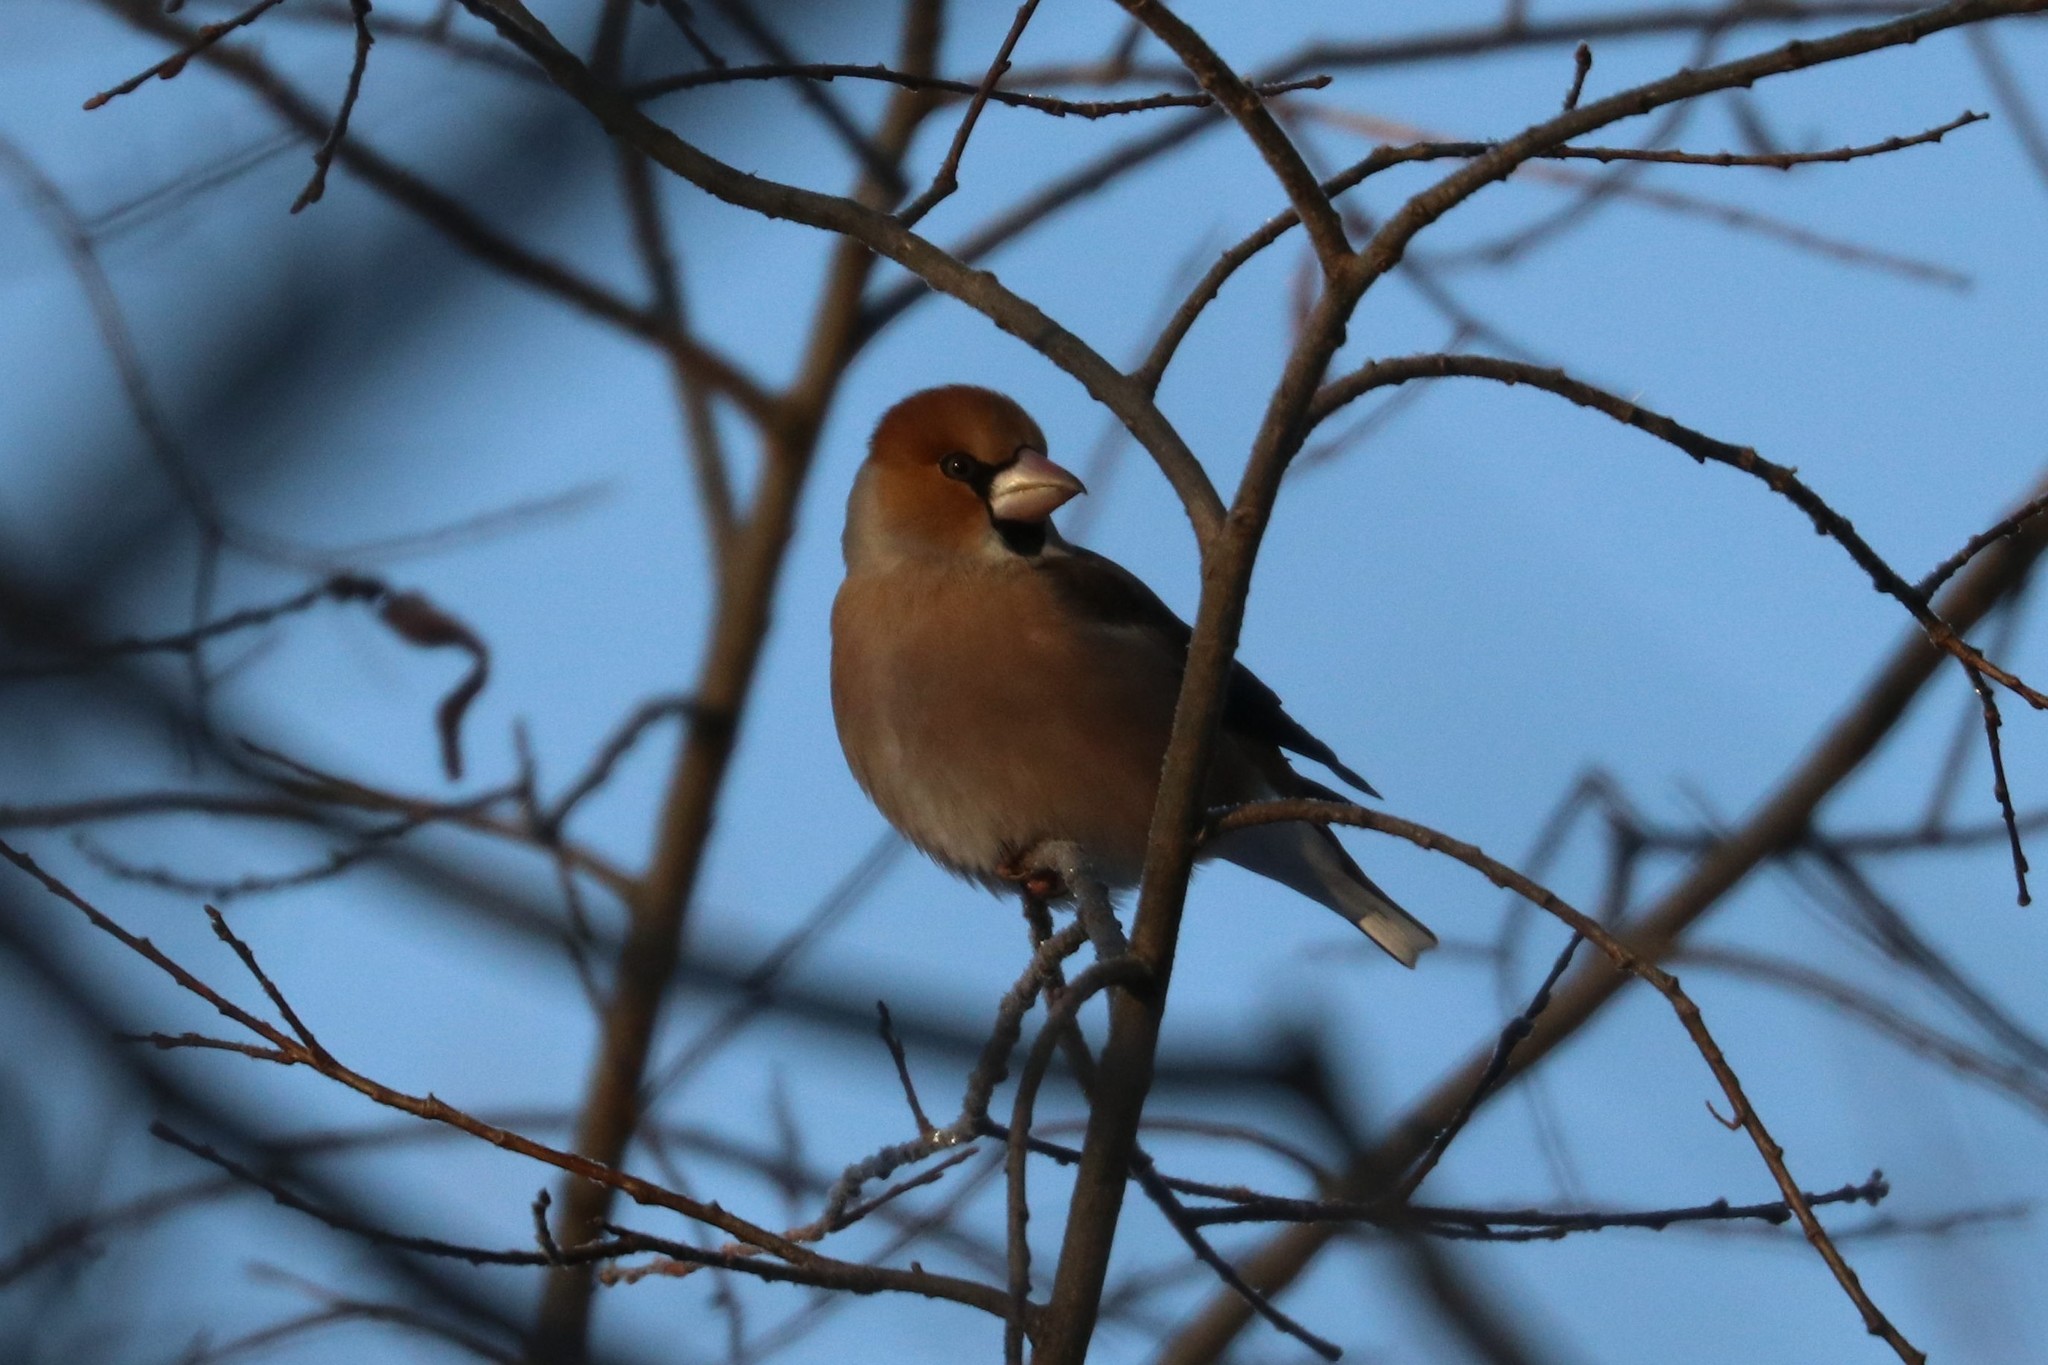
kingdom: Animalia
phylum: Chordata
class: Aves
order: Passeriformes
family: Fringillidae
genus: Coccothraustes
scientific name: Coccothraustes coccothraustes
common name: Hawfinch
